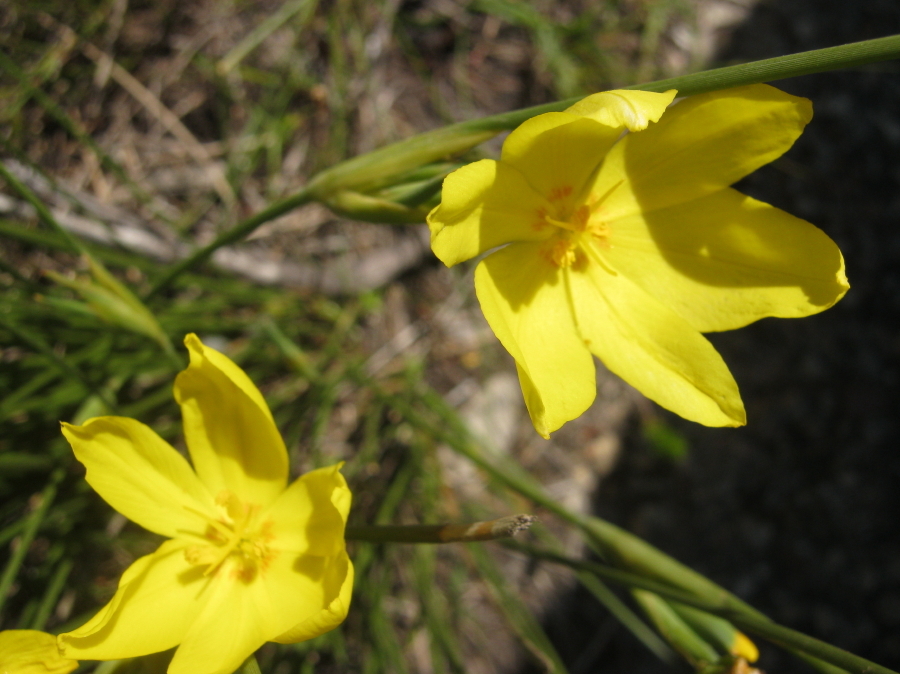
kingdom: Plantae
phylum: Tracheophyta
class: Liliopsida
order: Asparagales
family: Iridaceae
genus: Bobartia
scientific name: Bobartia aphylla
